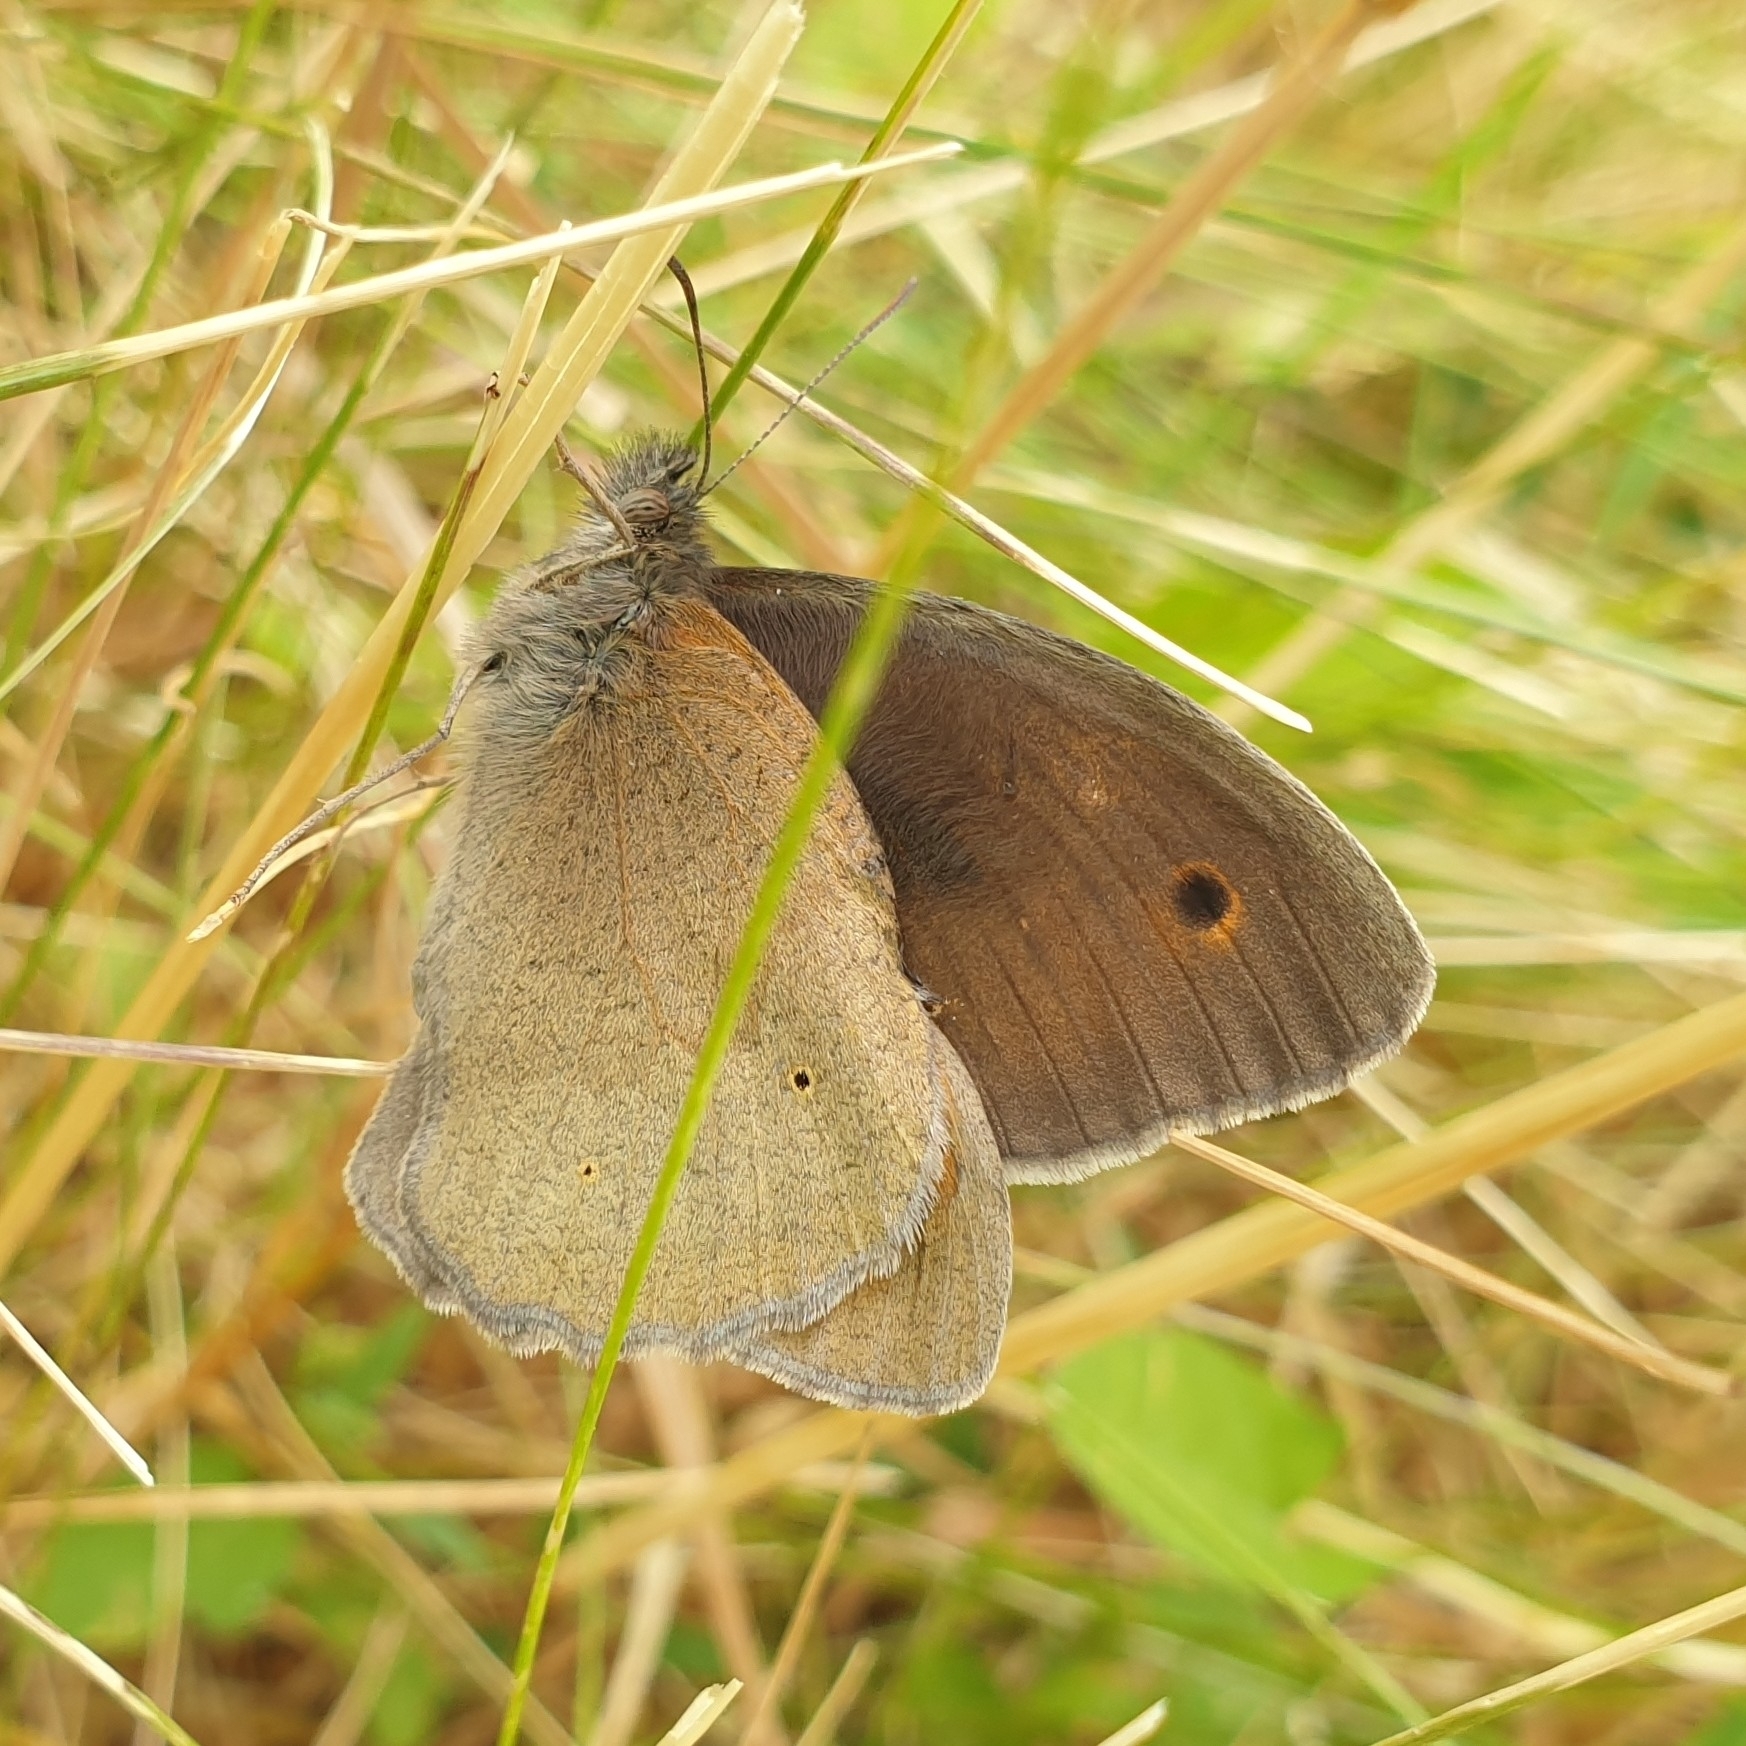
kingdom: Animalia
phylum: Arthropoda
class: Insecta
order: Lepidoptera
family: Nymphalidae
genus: Maniola
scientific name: Maniola jurtina
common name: Meadow brown
